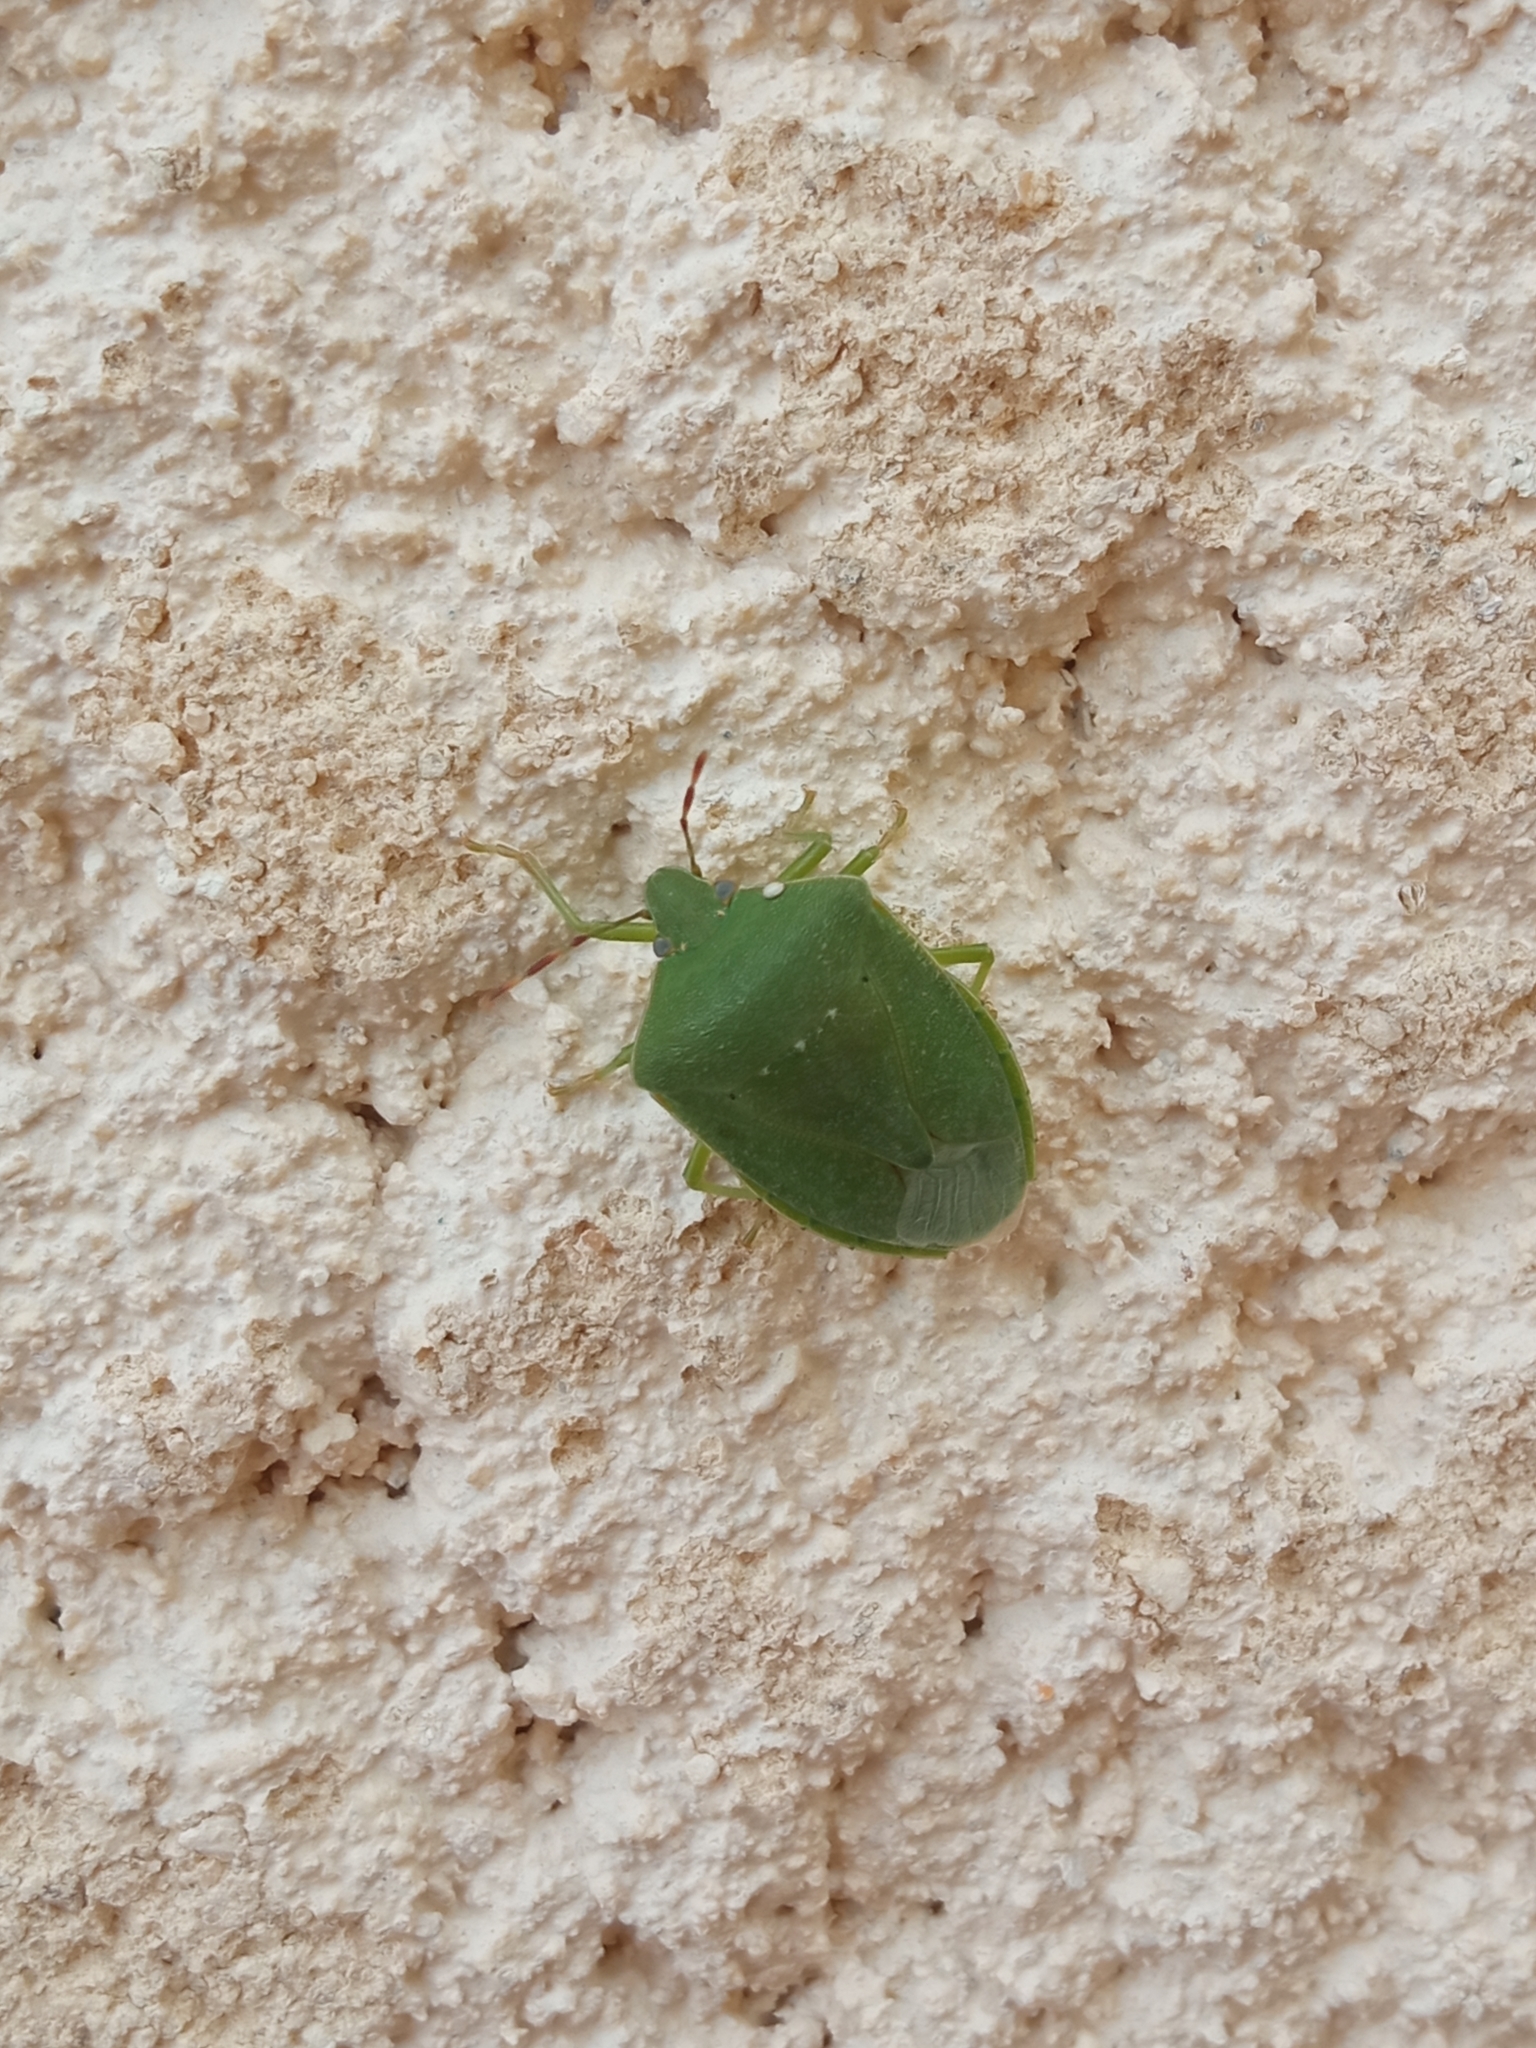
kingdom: Animalia
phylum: Arthropoda
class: Insecta
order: Hemiptera
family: Pentatomidae
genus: Nezara
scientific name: Nezara viridula
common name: Southern green stink bug
